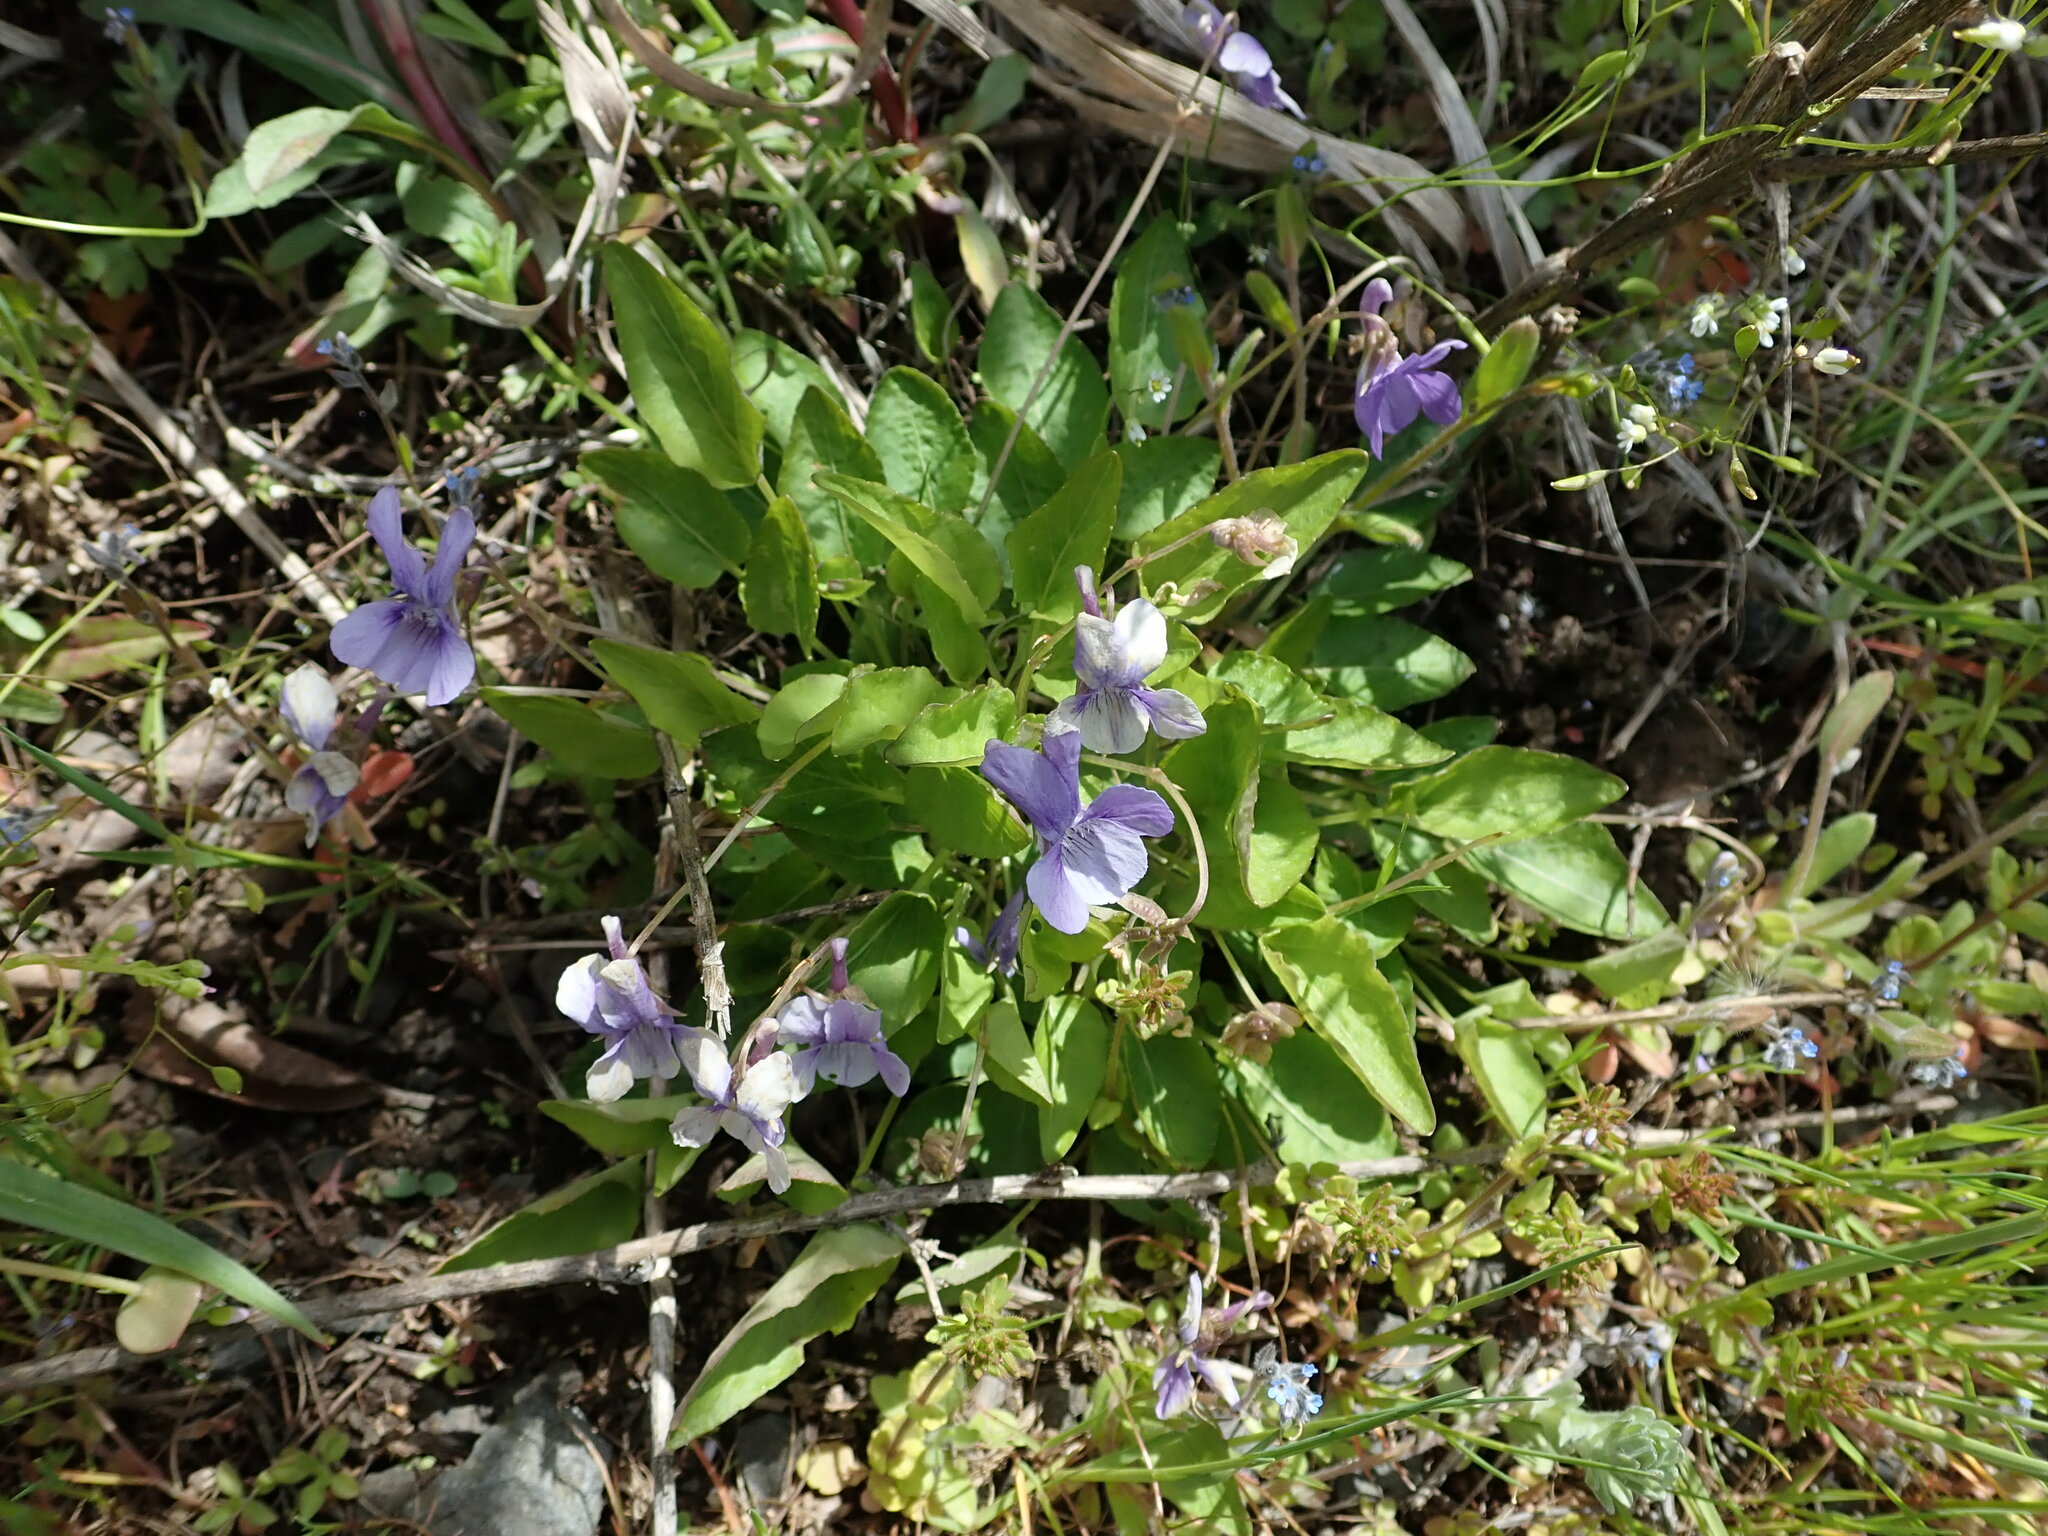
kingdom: Plantae
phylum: Tracheophyta
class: Magnoliopsida
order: Malpighiales
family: Violaceae
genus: Viola
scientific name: Viola adunca
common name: Sand violet
